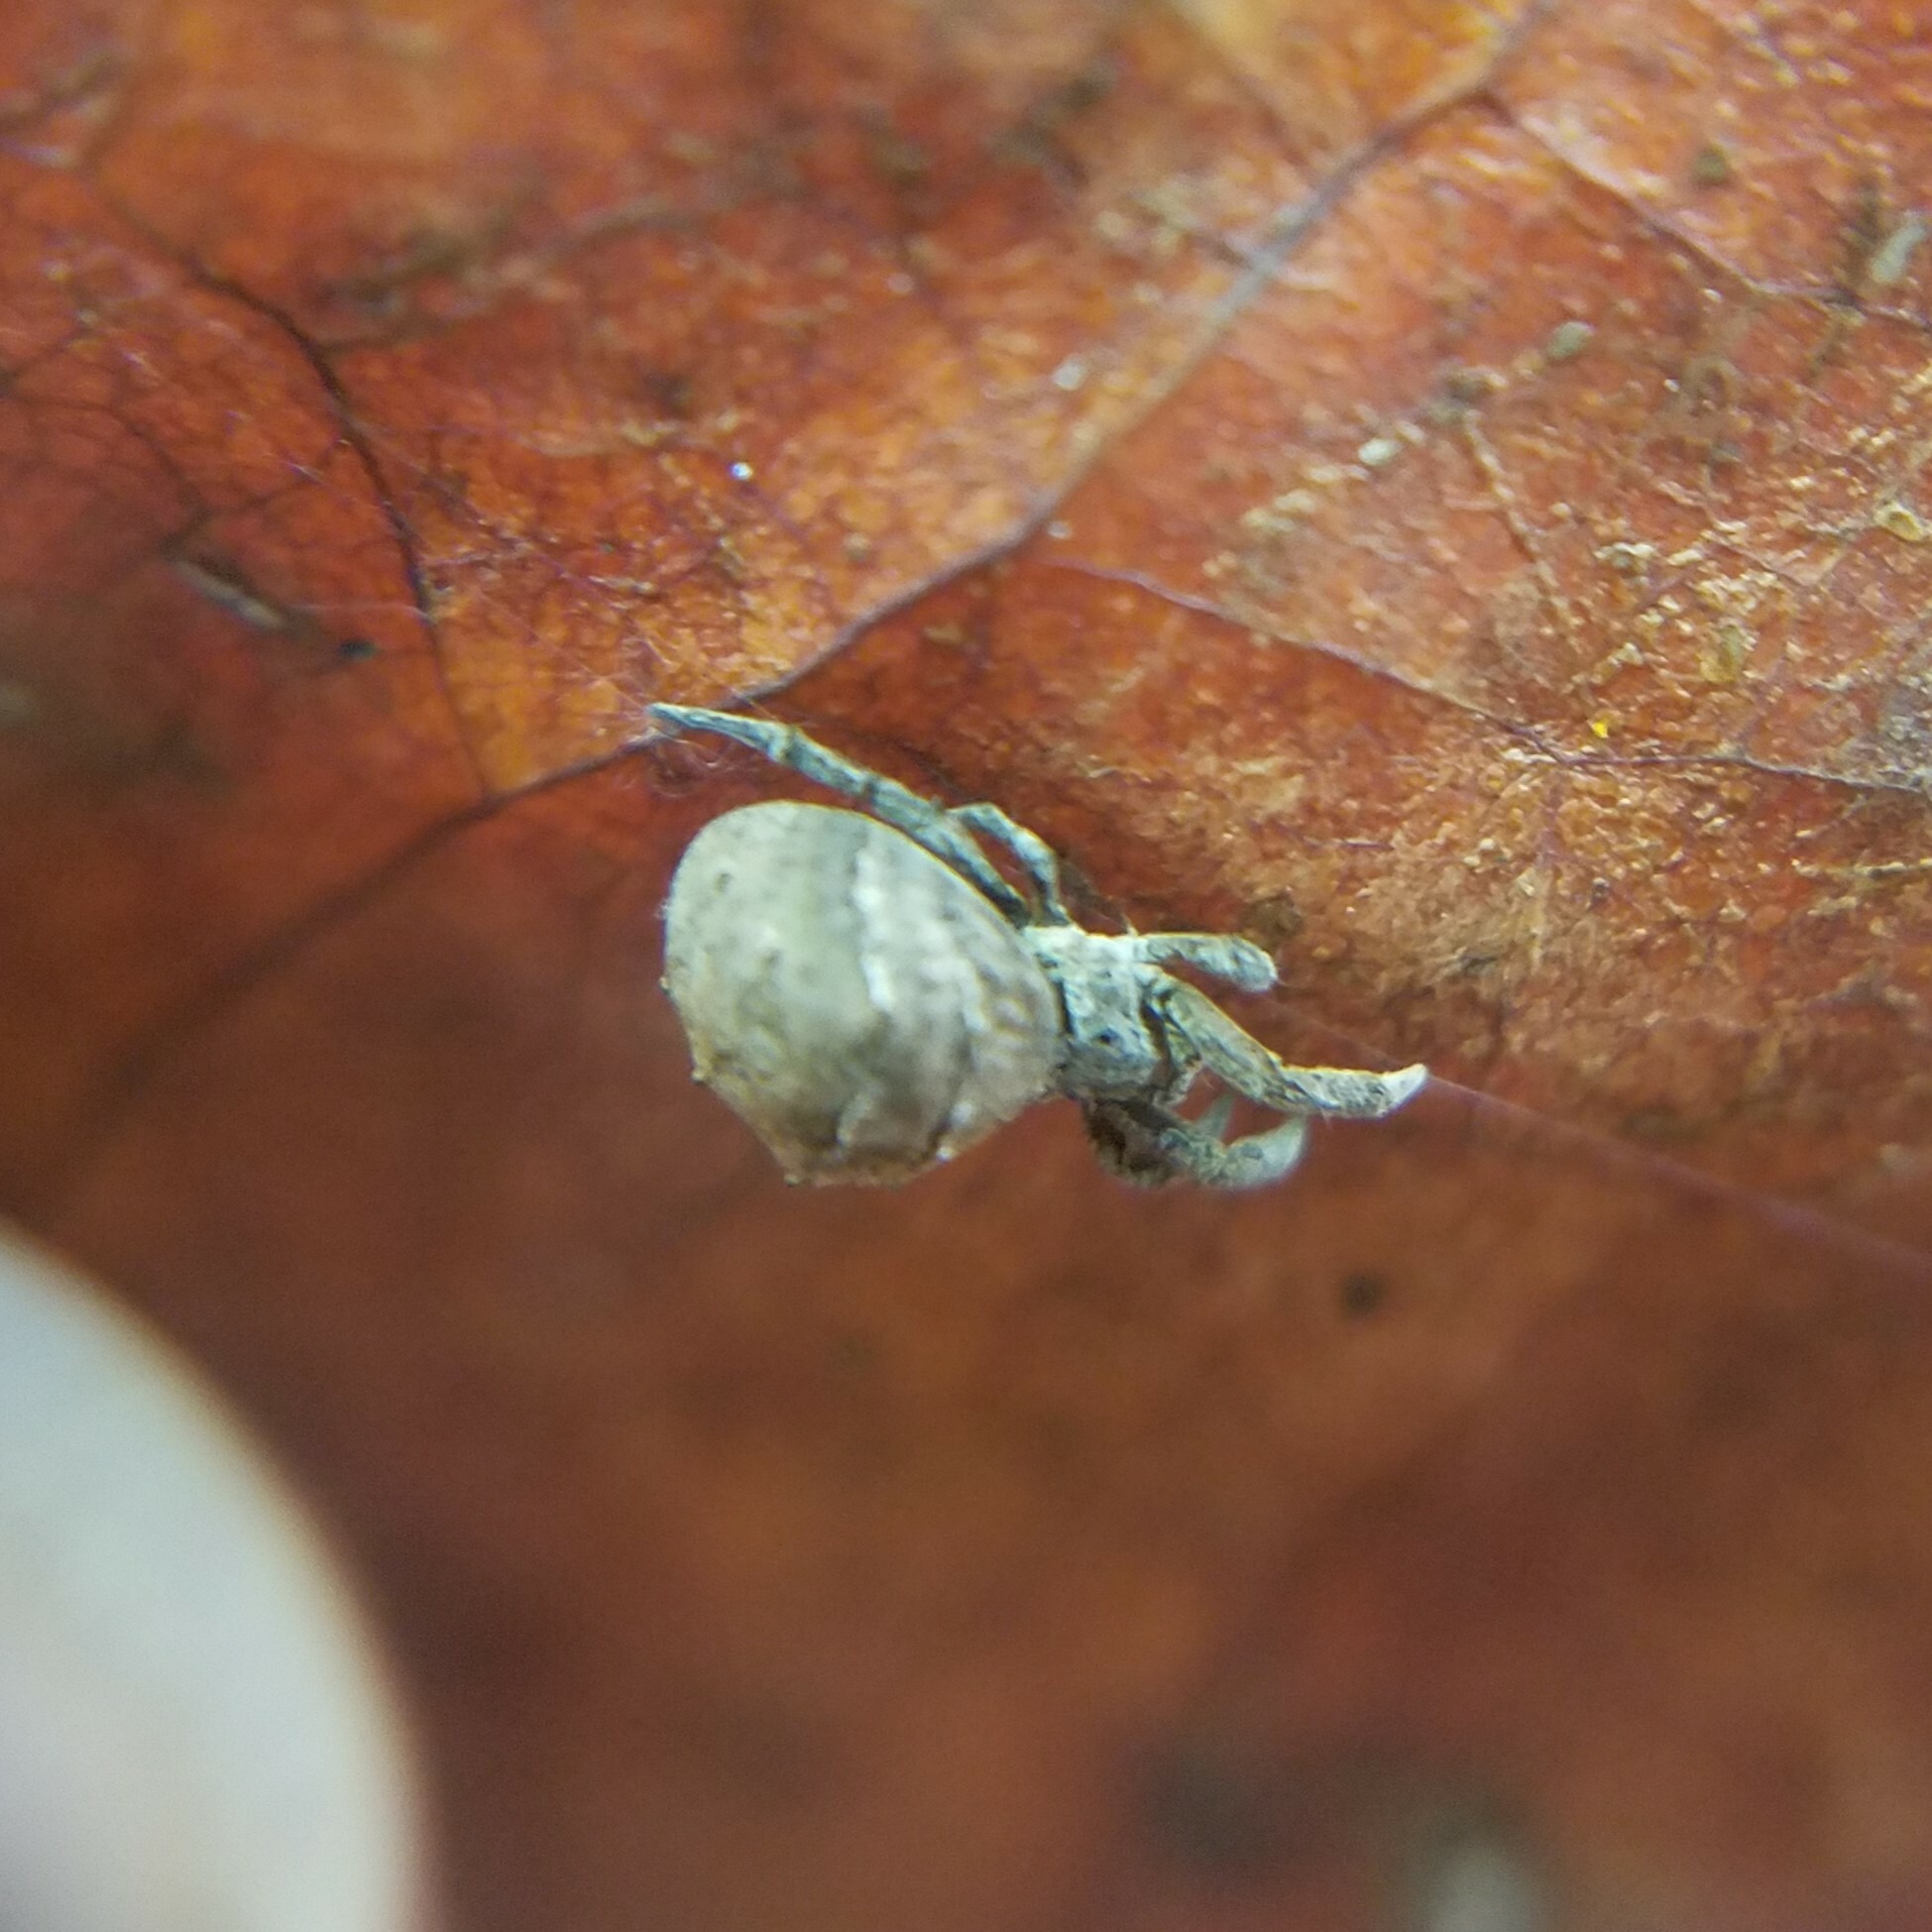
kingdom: Animalia
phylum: Arthropoda
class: Arachnida
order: Araneae
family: Uloboridae
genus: Hyptiotes
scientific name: Hyptiotes cavatus
